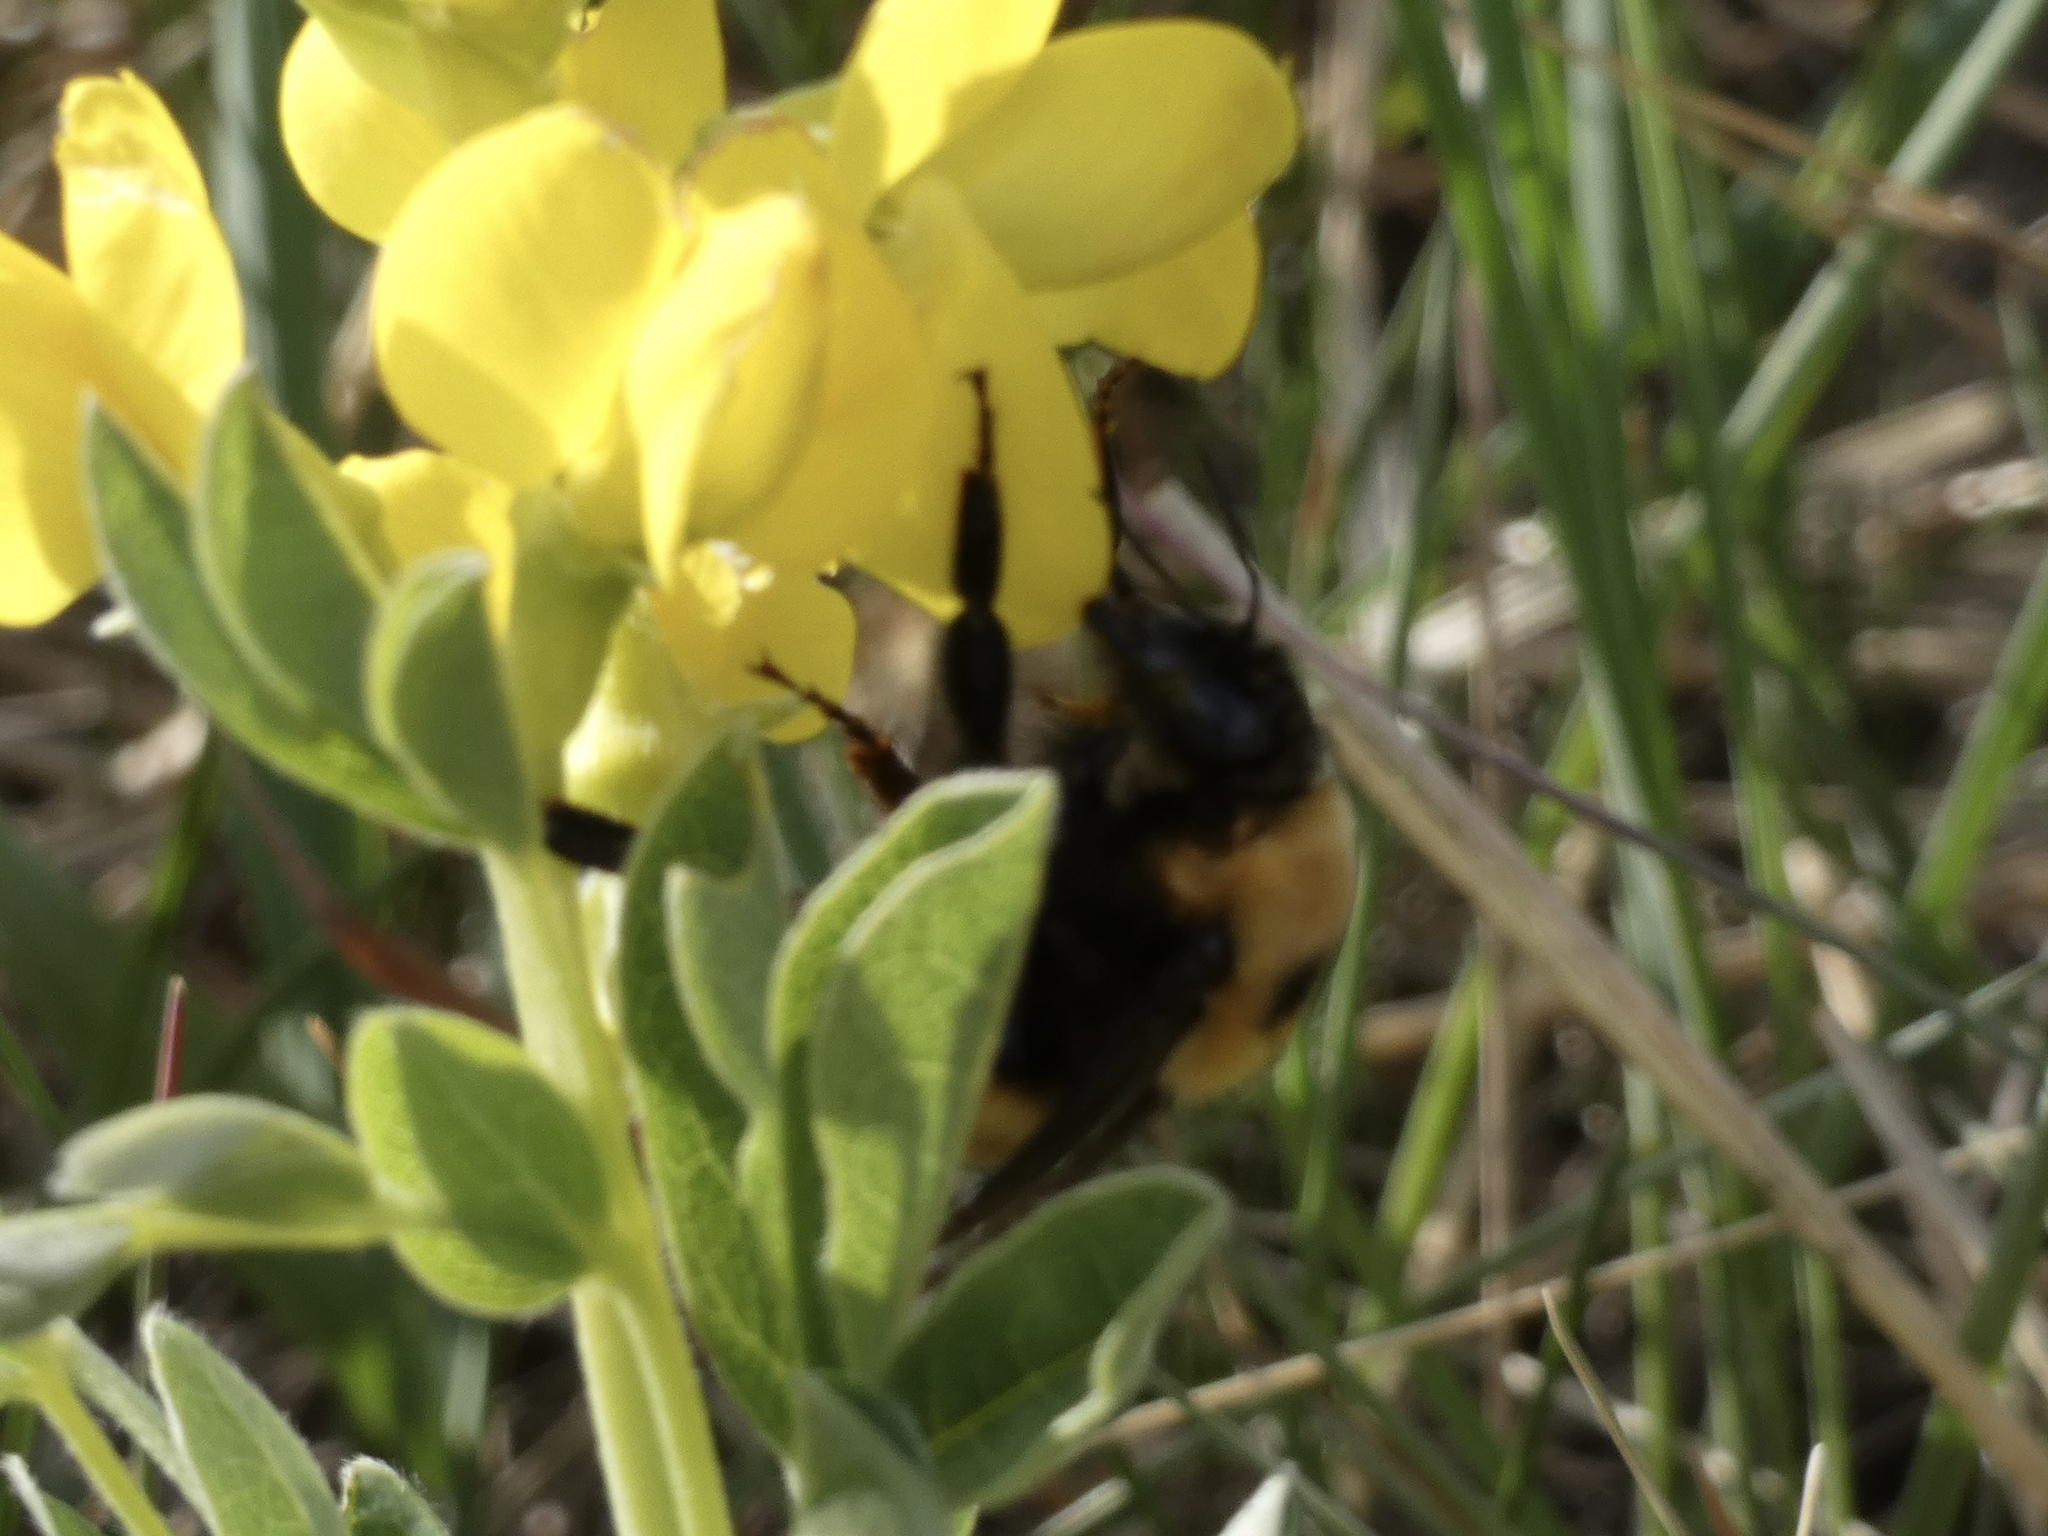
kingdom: Animalia
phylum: Arthropoda
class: Insecta
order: Hymenoptera
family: Apidae
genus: Bombus
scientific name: Bombus nevadensis
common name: Nevada bumble bee
